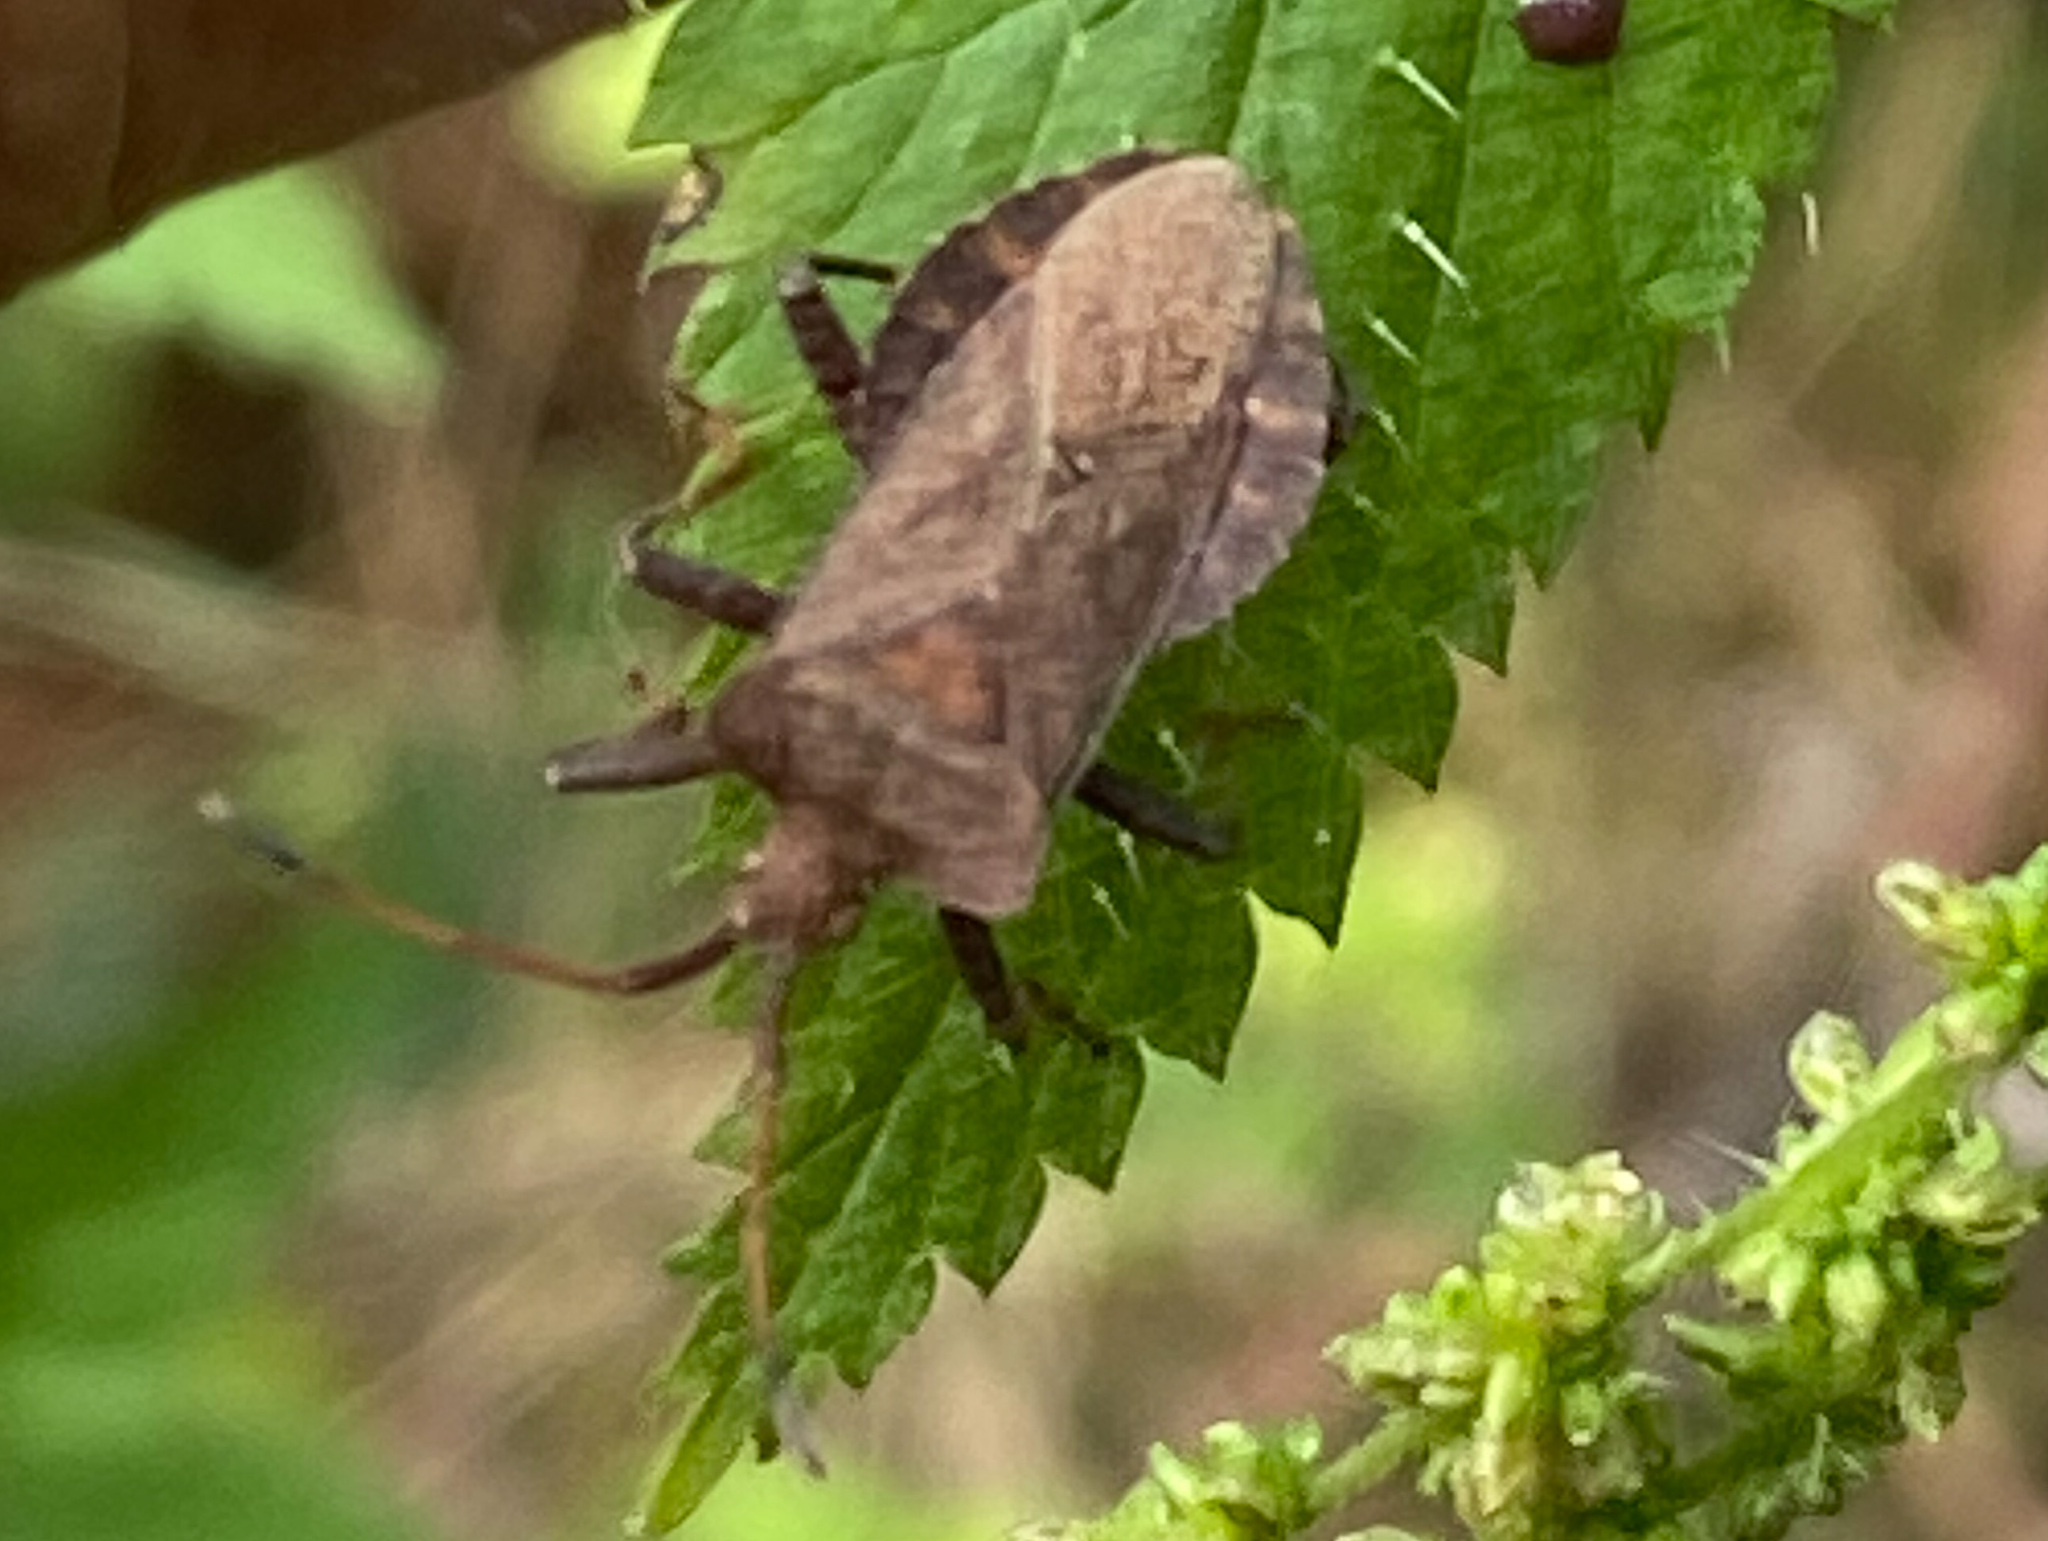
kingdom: Animalia
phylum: Arthropoda
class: Insecta
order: Hemiptera
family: Coreidae
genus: Coreus
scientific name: Coreus marginatus
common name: Dock bug
